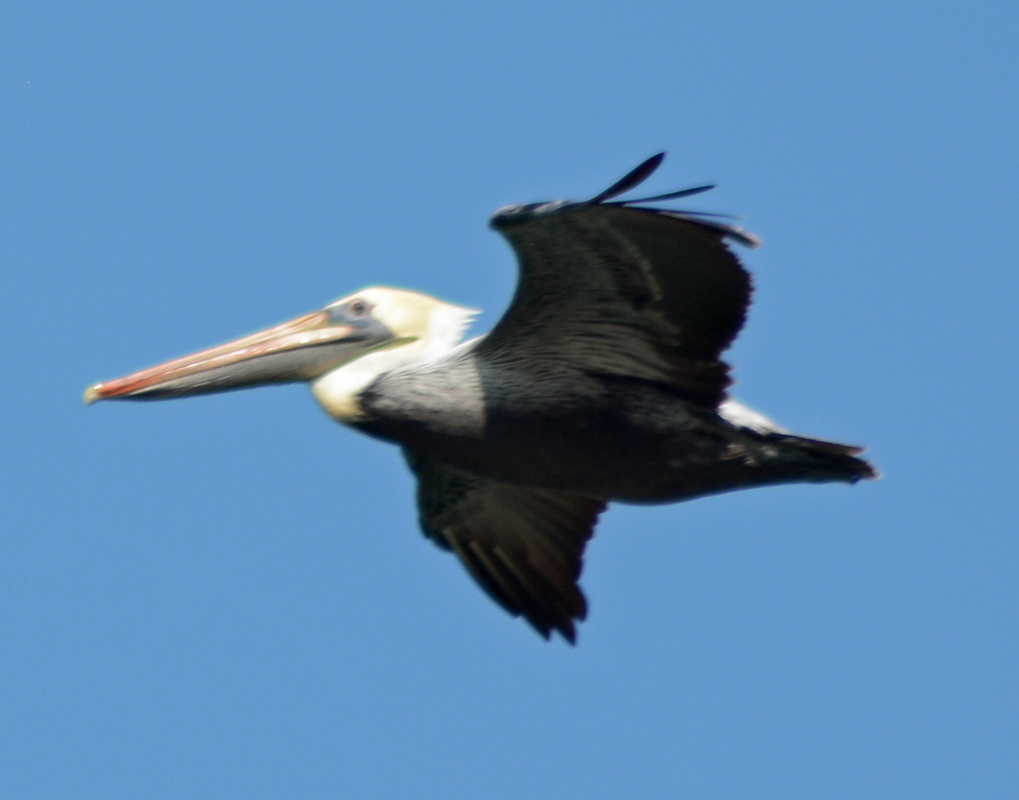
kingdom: Animalia
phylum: Chordata
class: Aves
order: Pelecaniformes
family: Pelecanidae
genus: Pelecanus
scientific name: Pelecanus occidentalis
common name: Brown pelican
